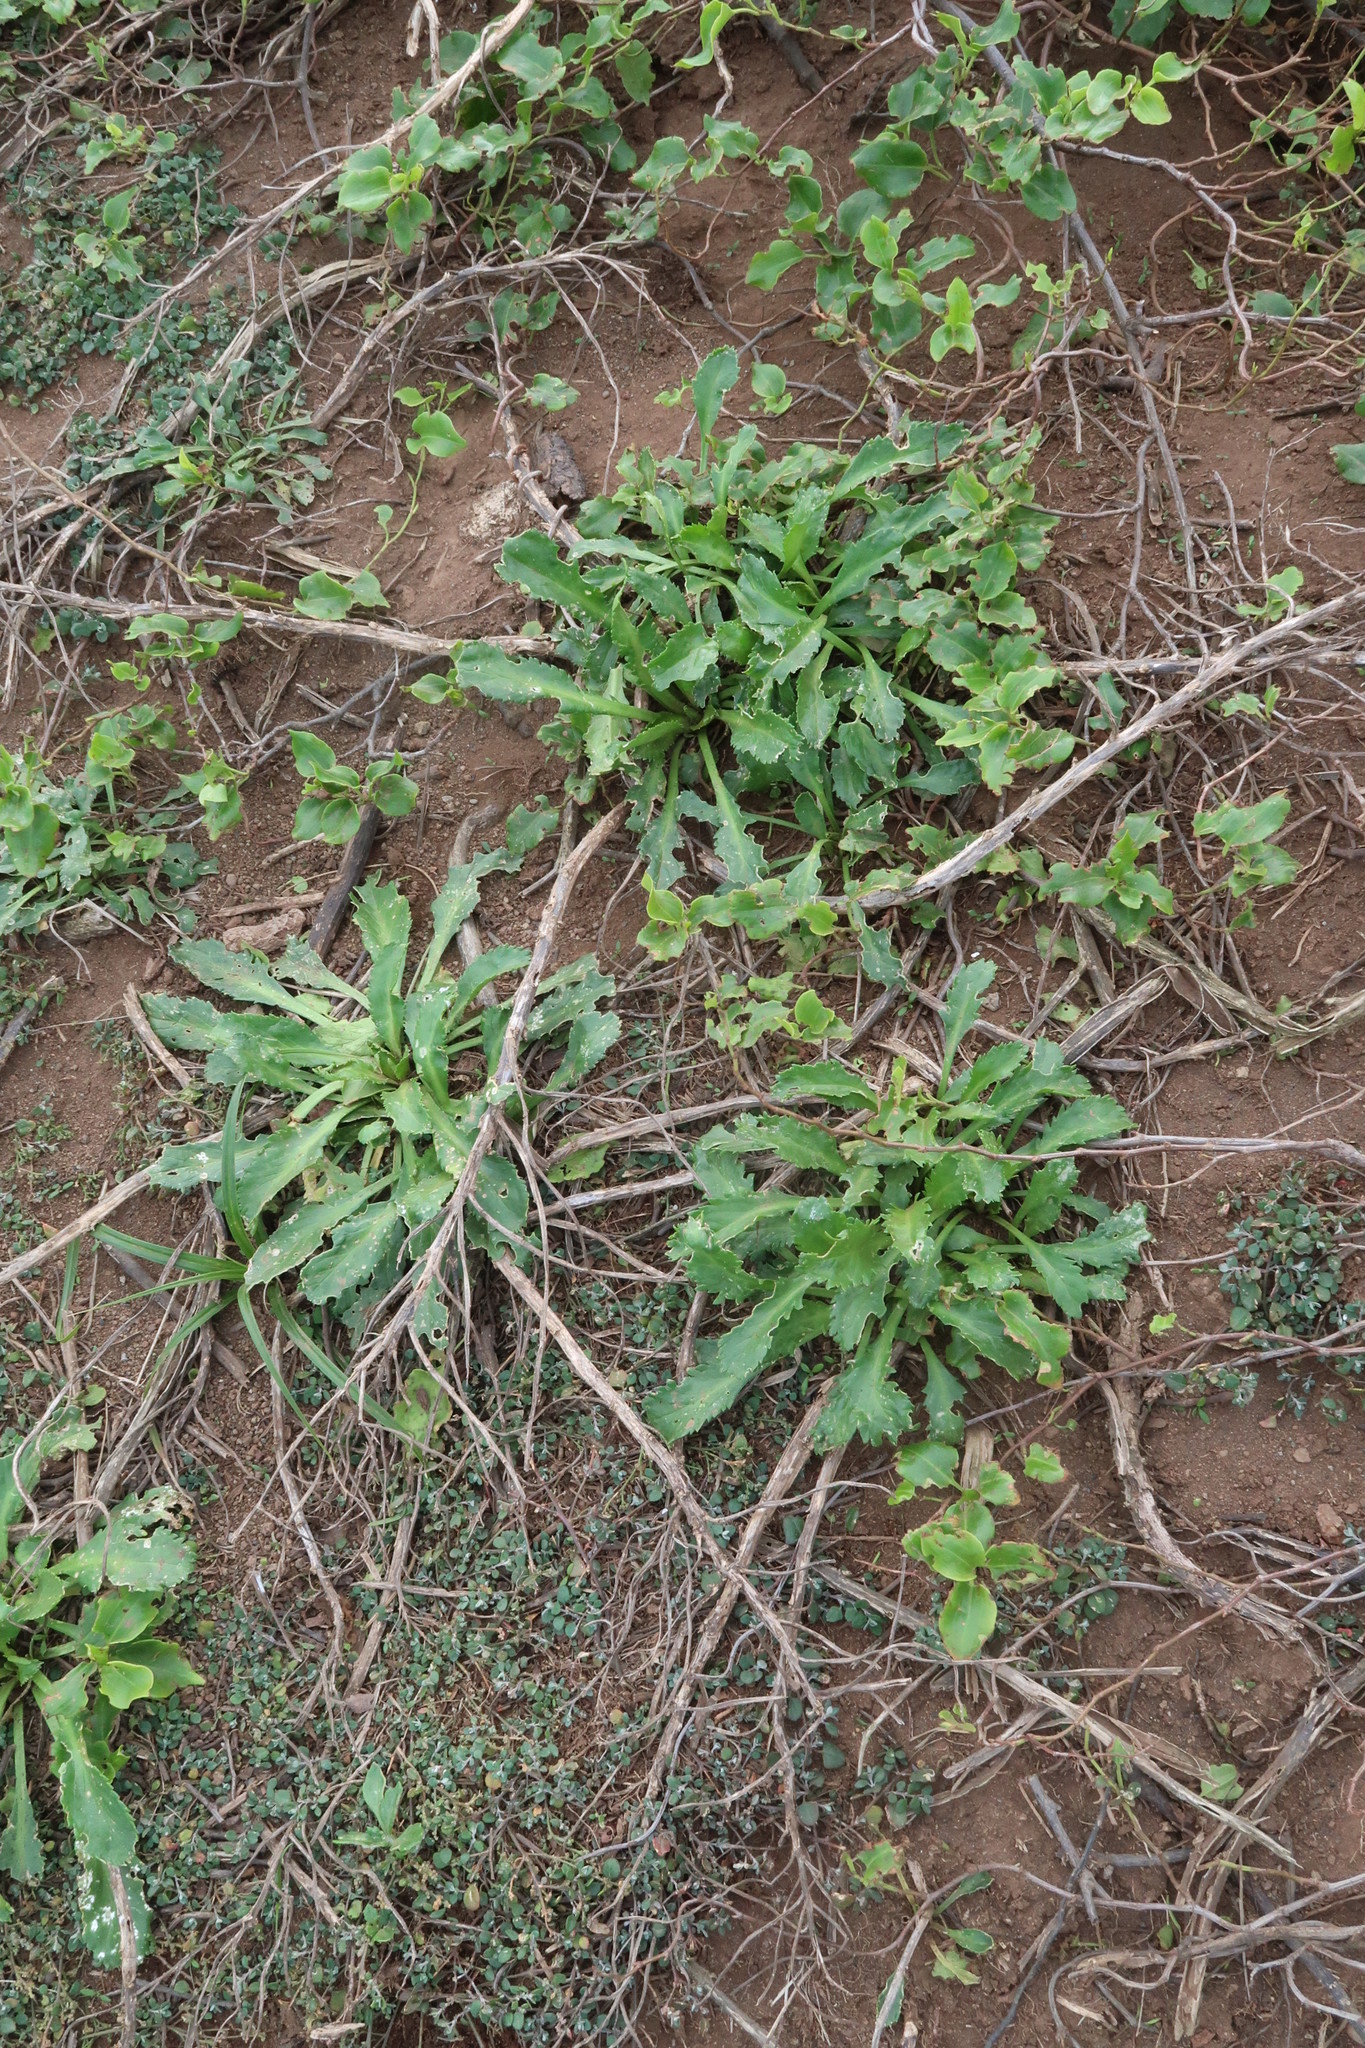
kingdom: Plantae
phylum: Tracheophyta
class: Magnoliopsida
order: Brassicales
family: Brassicaceae
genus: Lepidium
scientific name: Lepidium panniforme
